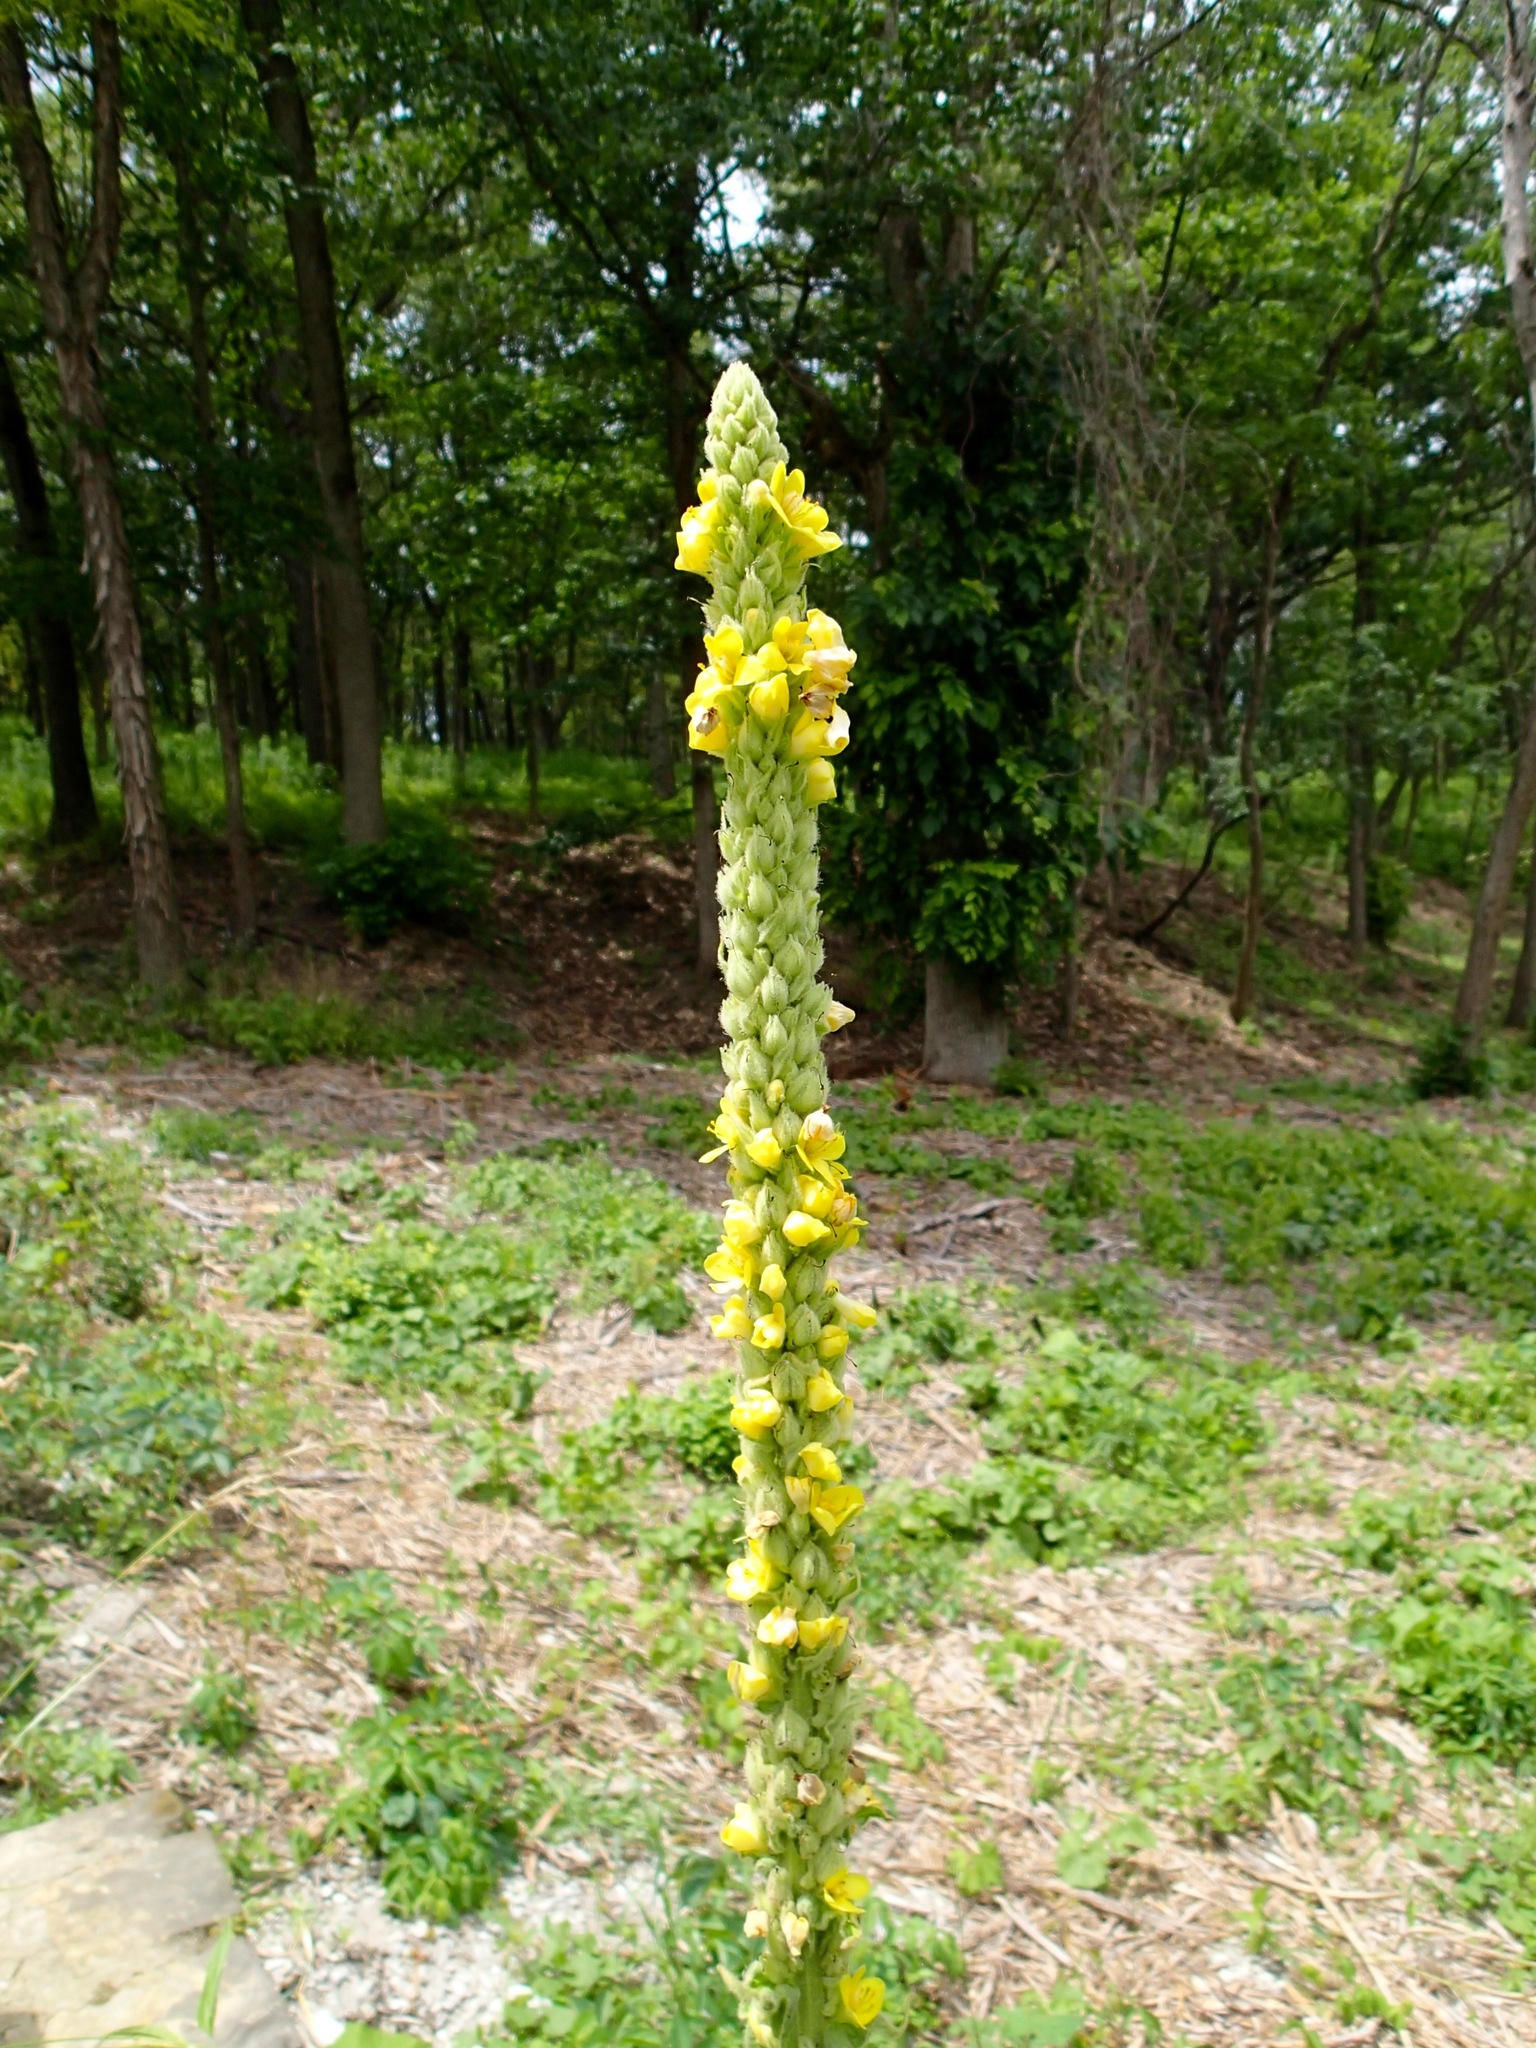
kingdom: Plantae
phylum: Tracheophyta
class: Magnoliopsida
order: Lamiales
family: Scrophulariaceae
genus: Verbascum
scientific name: Verbascum thapsus
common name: Common mullein
